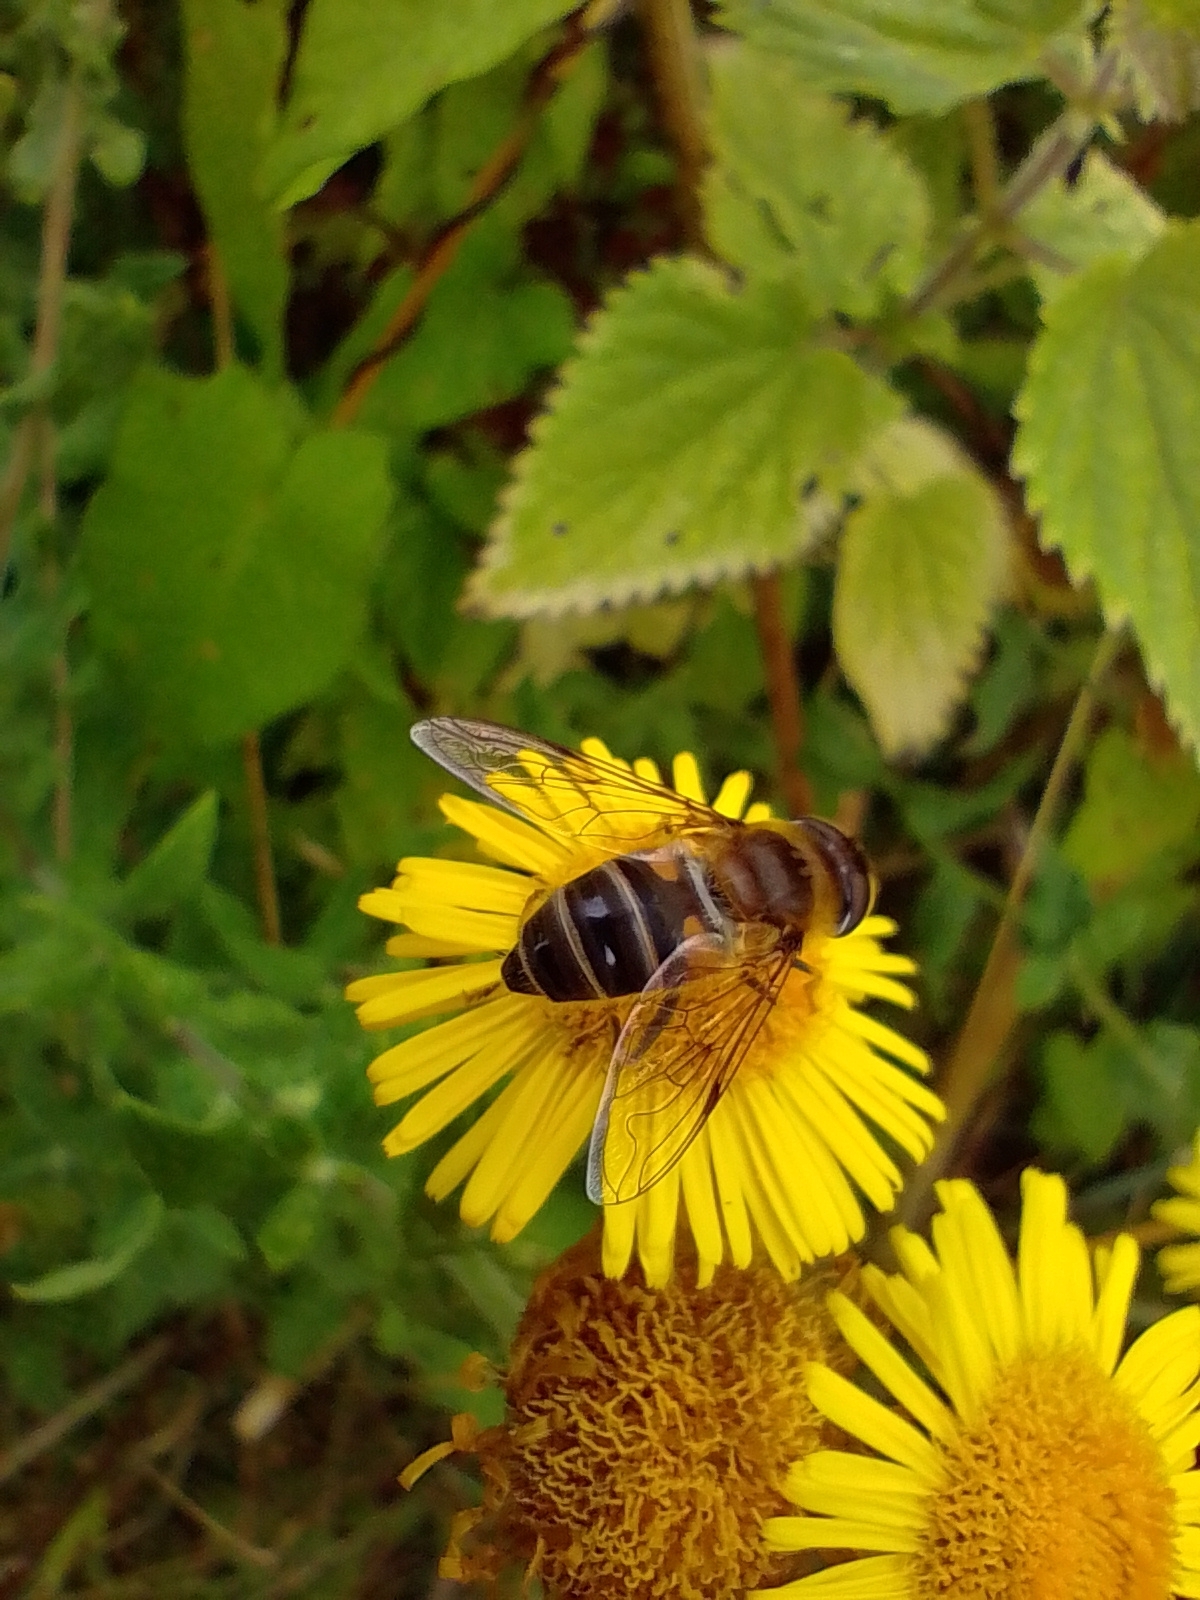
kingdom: Animalia
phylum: Arthropoda
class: Insecta
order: Diptera
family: Syrphidae
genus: Eristalis
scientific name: Eristalis pertinax
